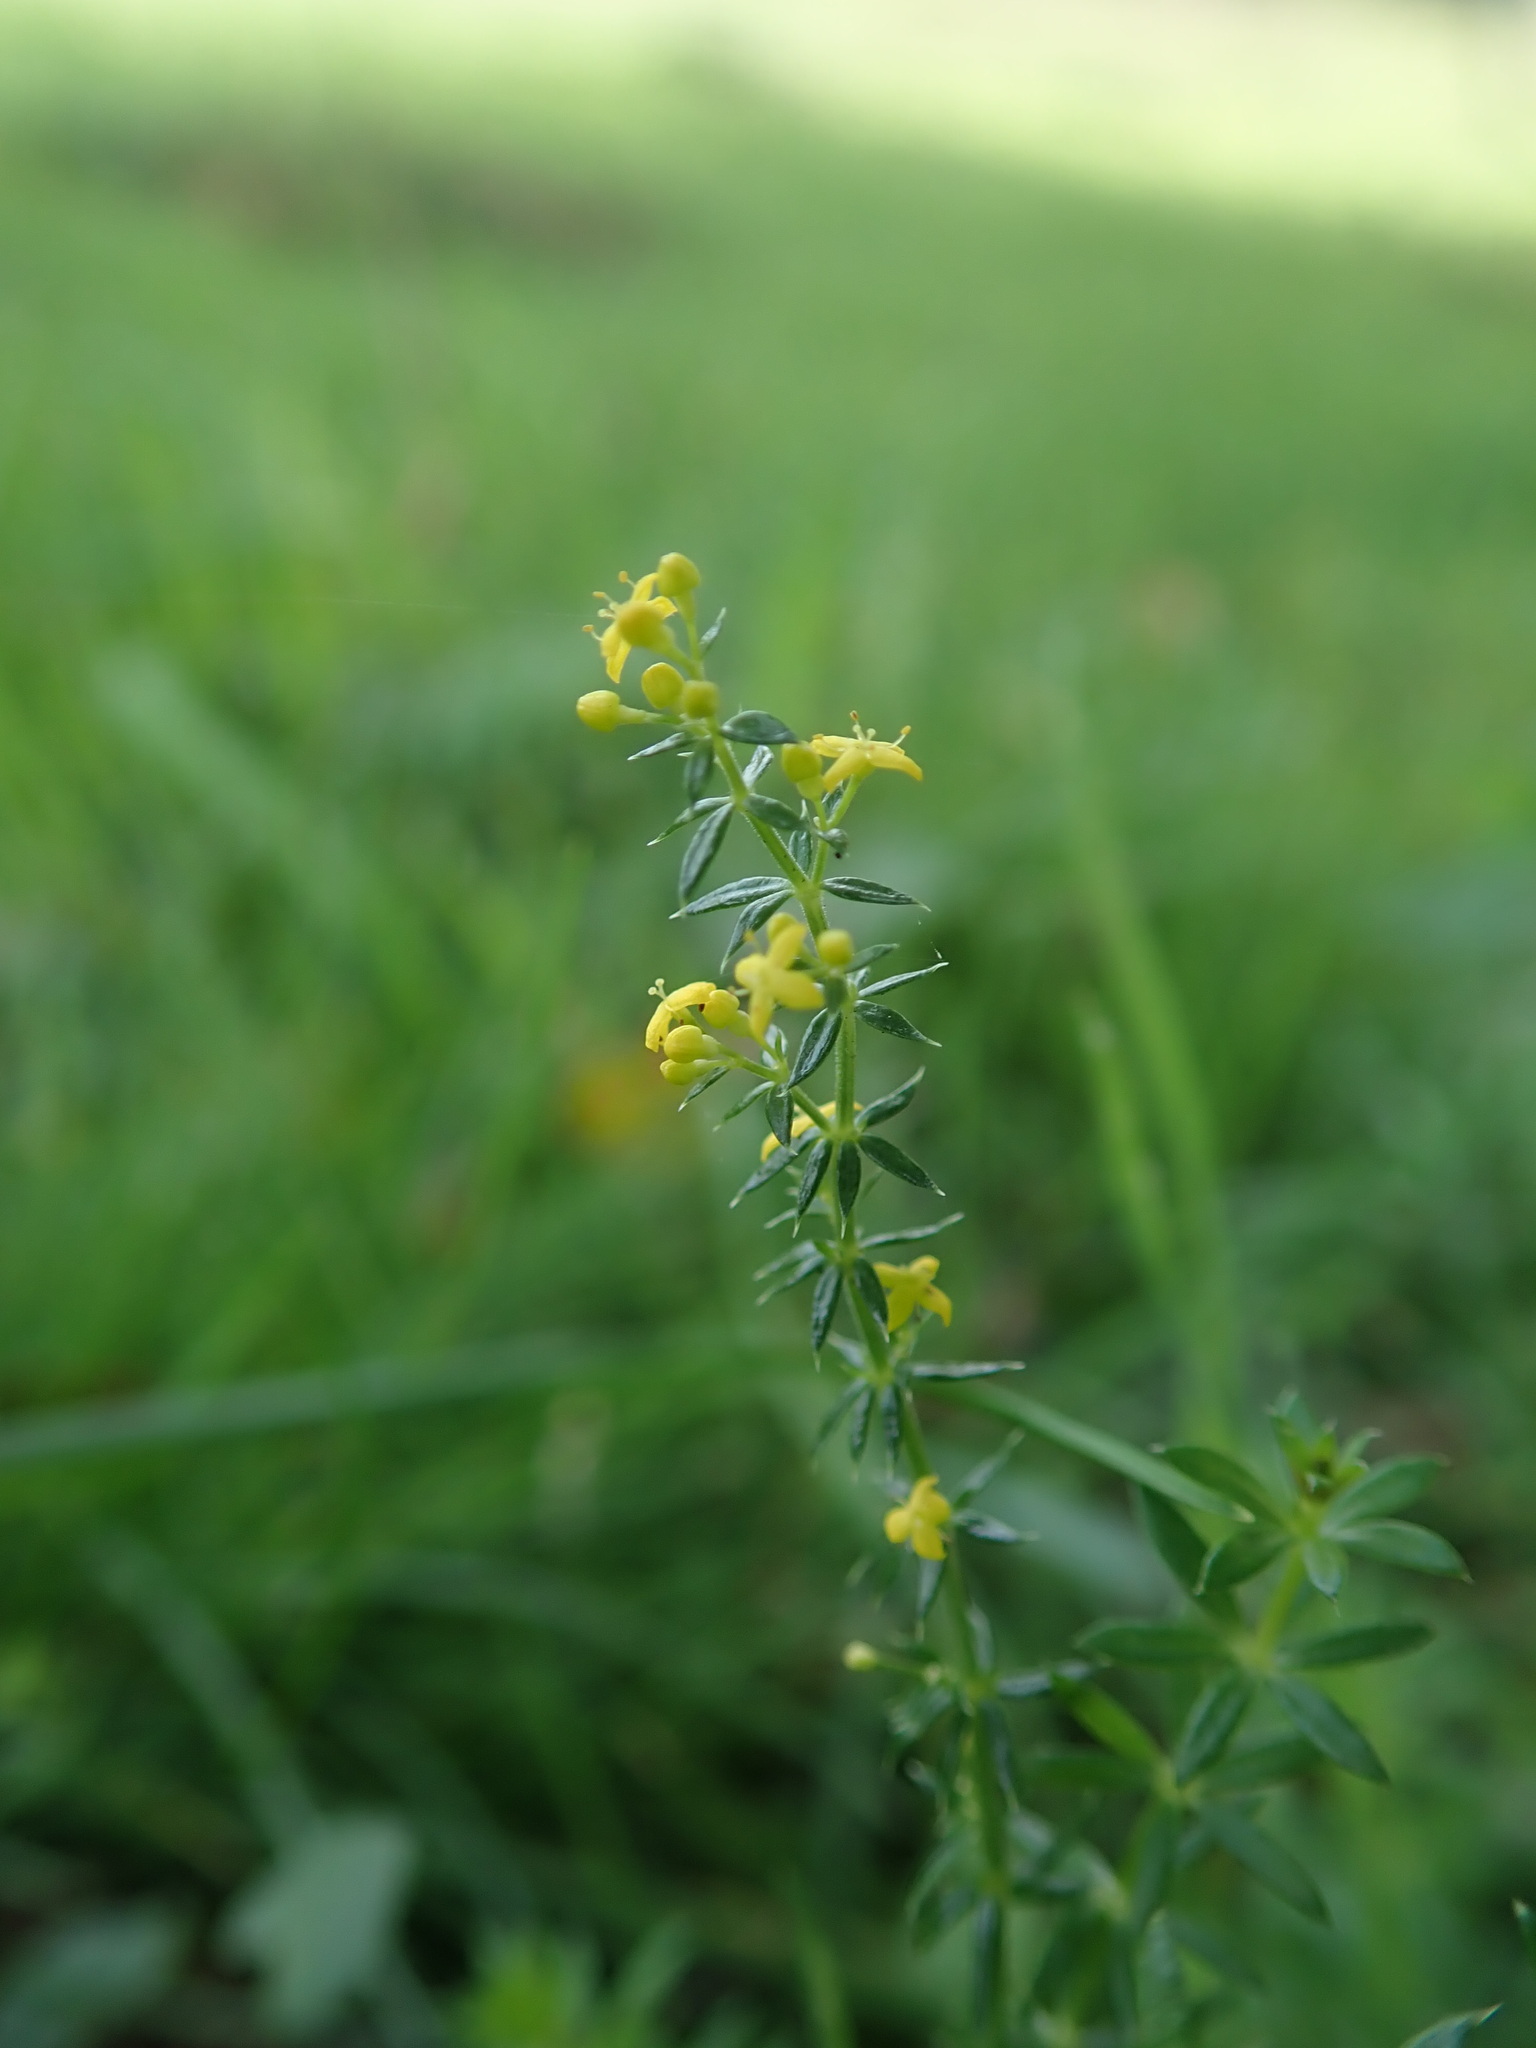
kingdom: Plantae
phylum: Tracheophyta
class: Magnoliopsida
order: Gentianales
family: Rubiaceae
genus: Galium
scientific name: Galium verum
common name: Lady's bedstraw
